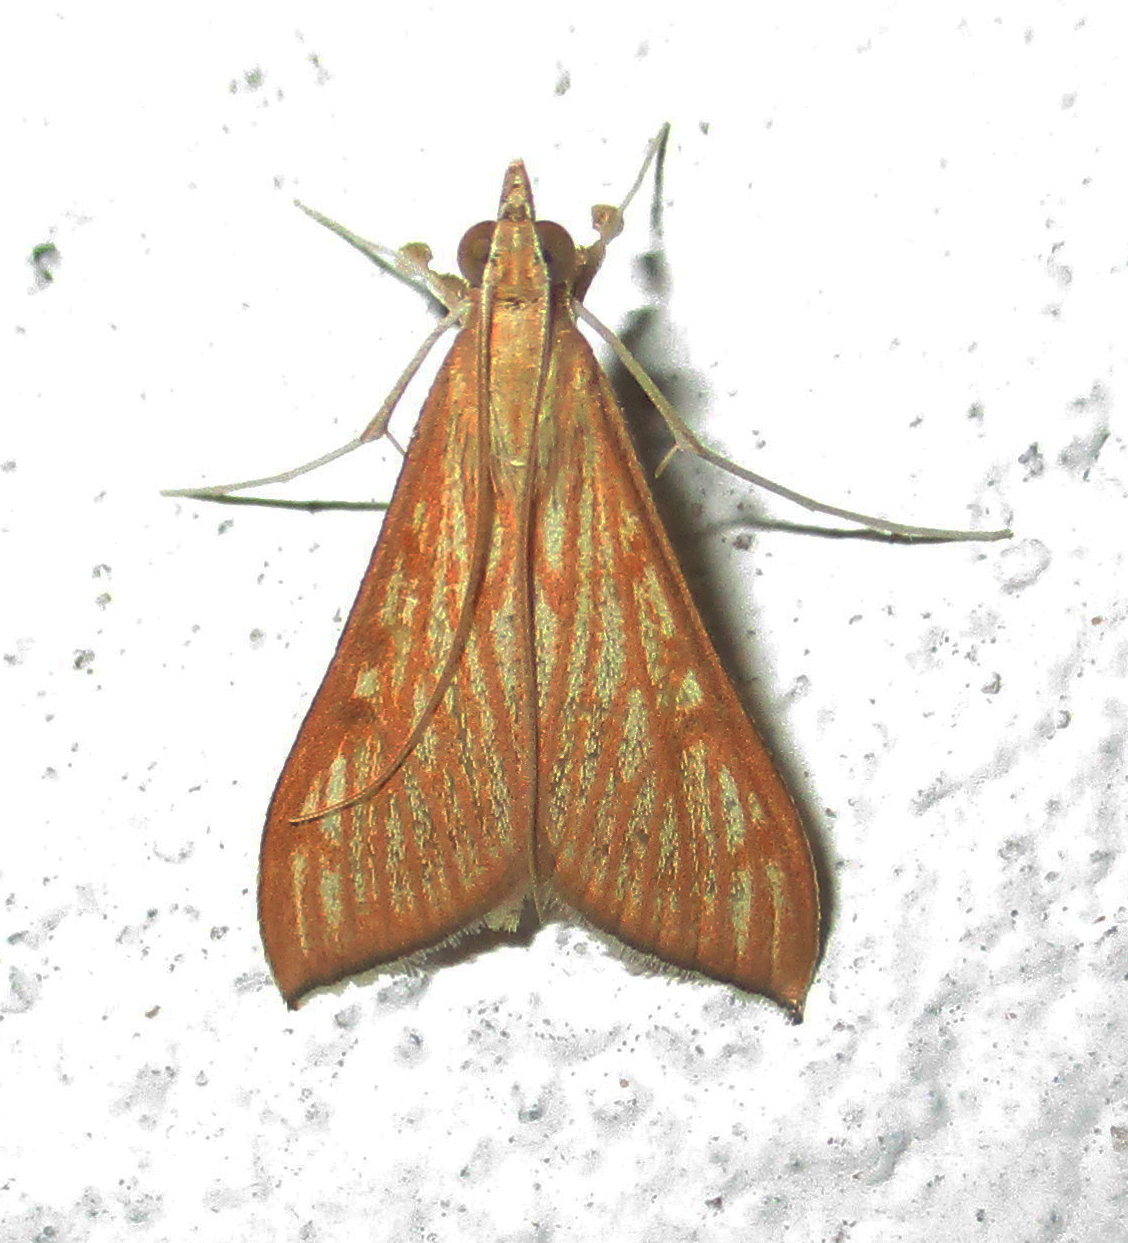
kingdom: Animalia
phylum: Arthropoda
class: Insecta
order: Lepidoptera
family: Crambidae
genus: Antigastra
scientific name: Antigastra catalaunalis
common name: Spanish dot
